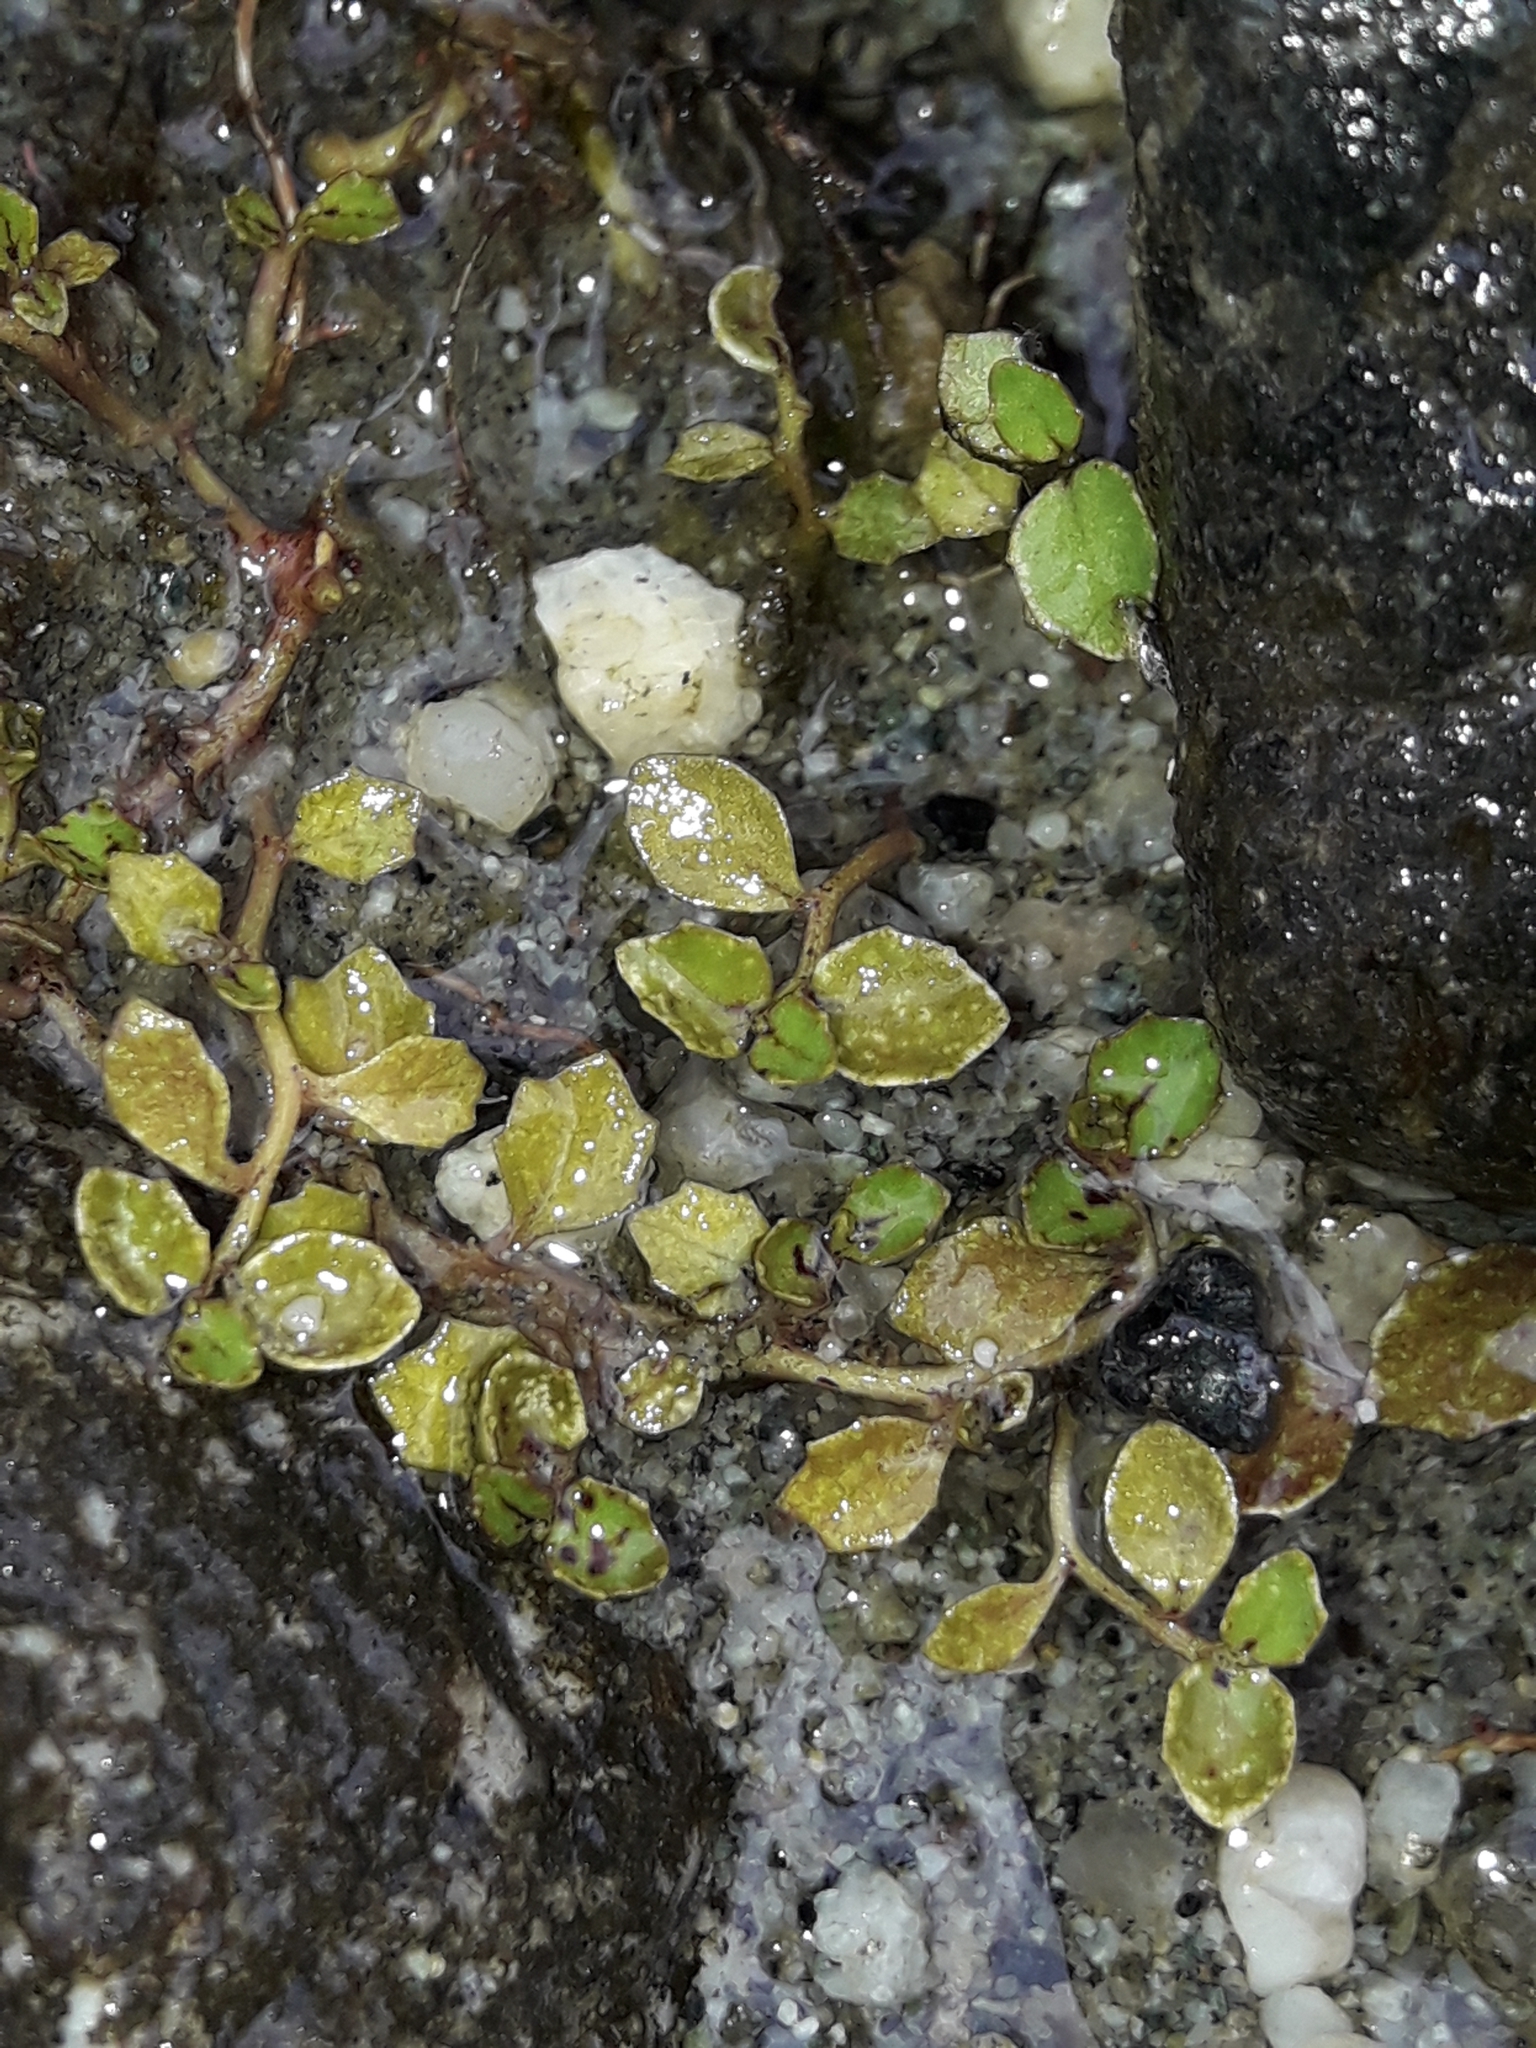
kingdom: Plantae
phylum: Tracheophyta
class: Magnoliopsida
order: Asterales
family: Campanulaceae
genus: Lobelia
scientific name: Lobelia angulata
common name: Lawn lobelia
